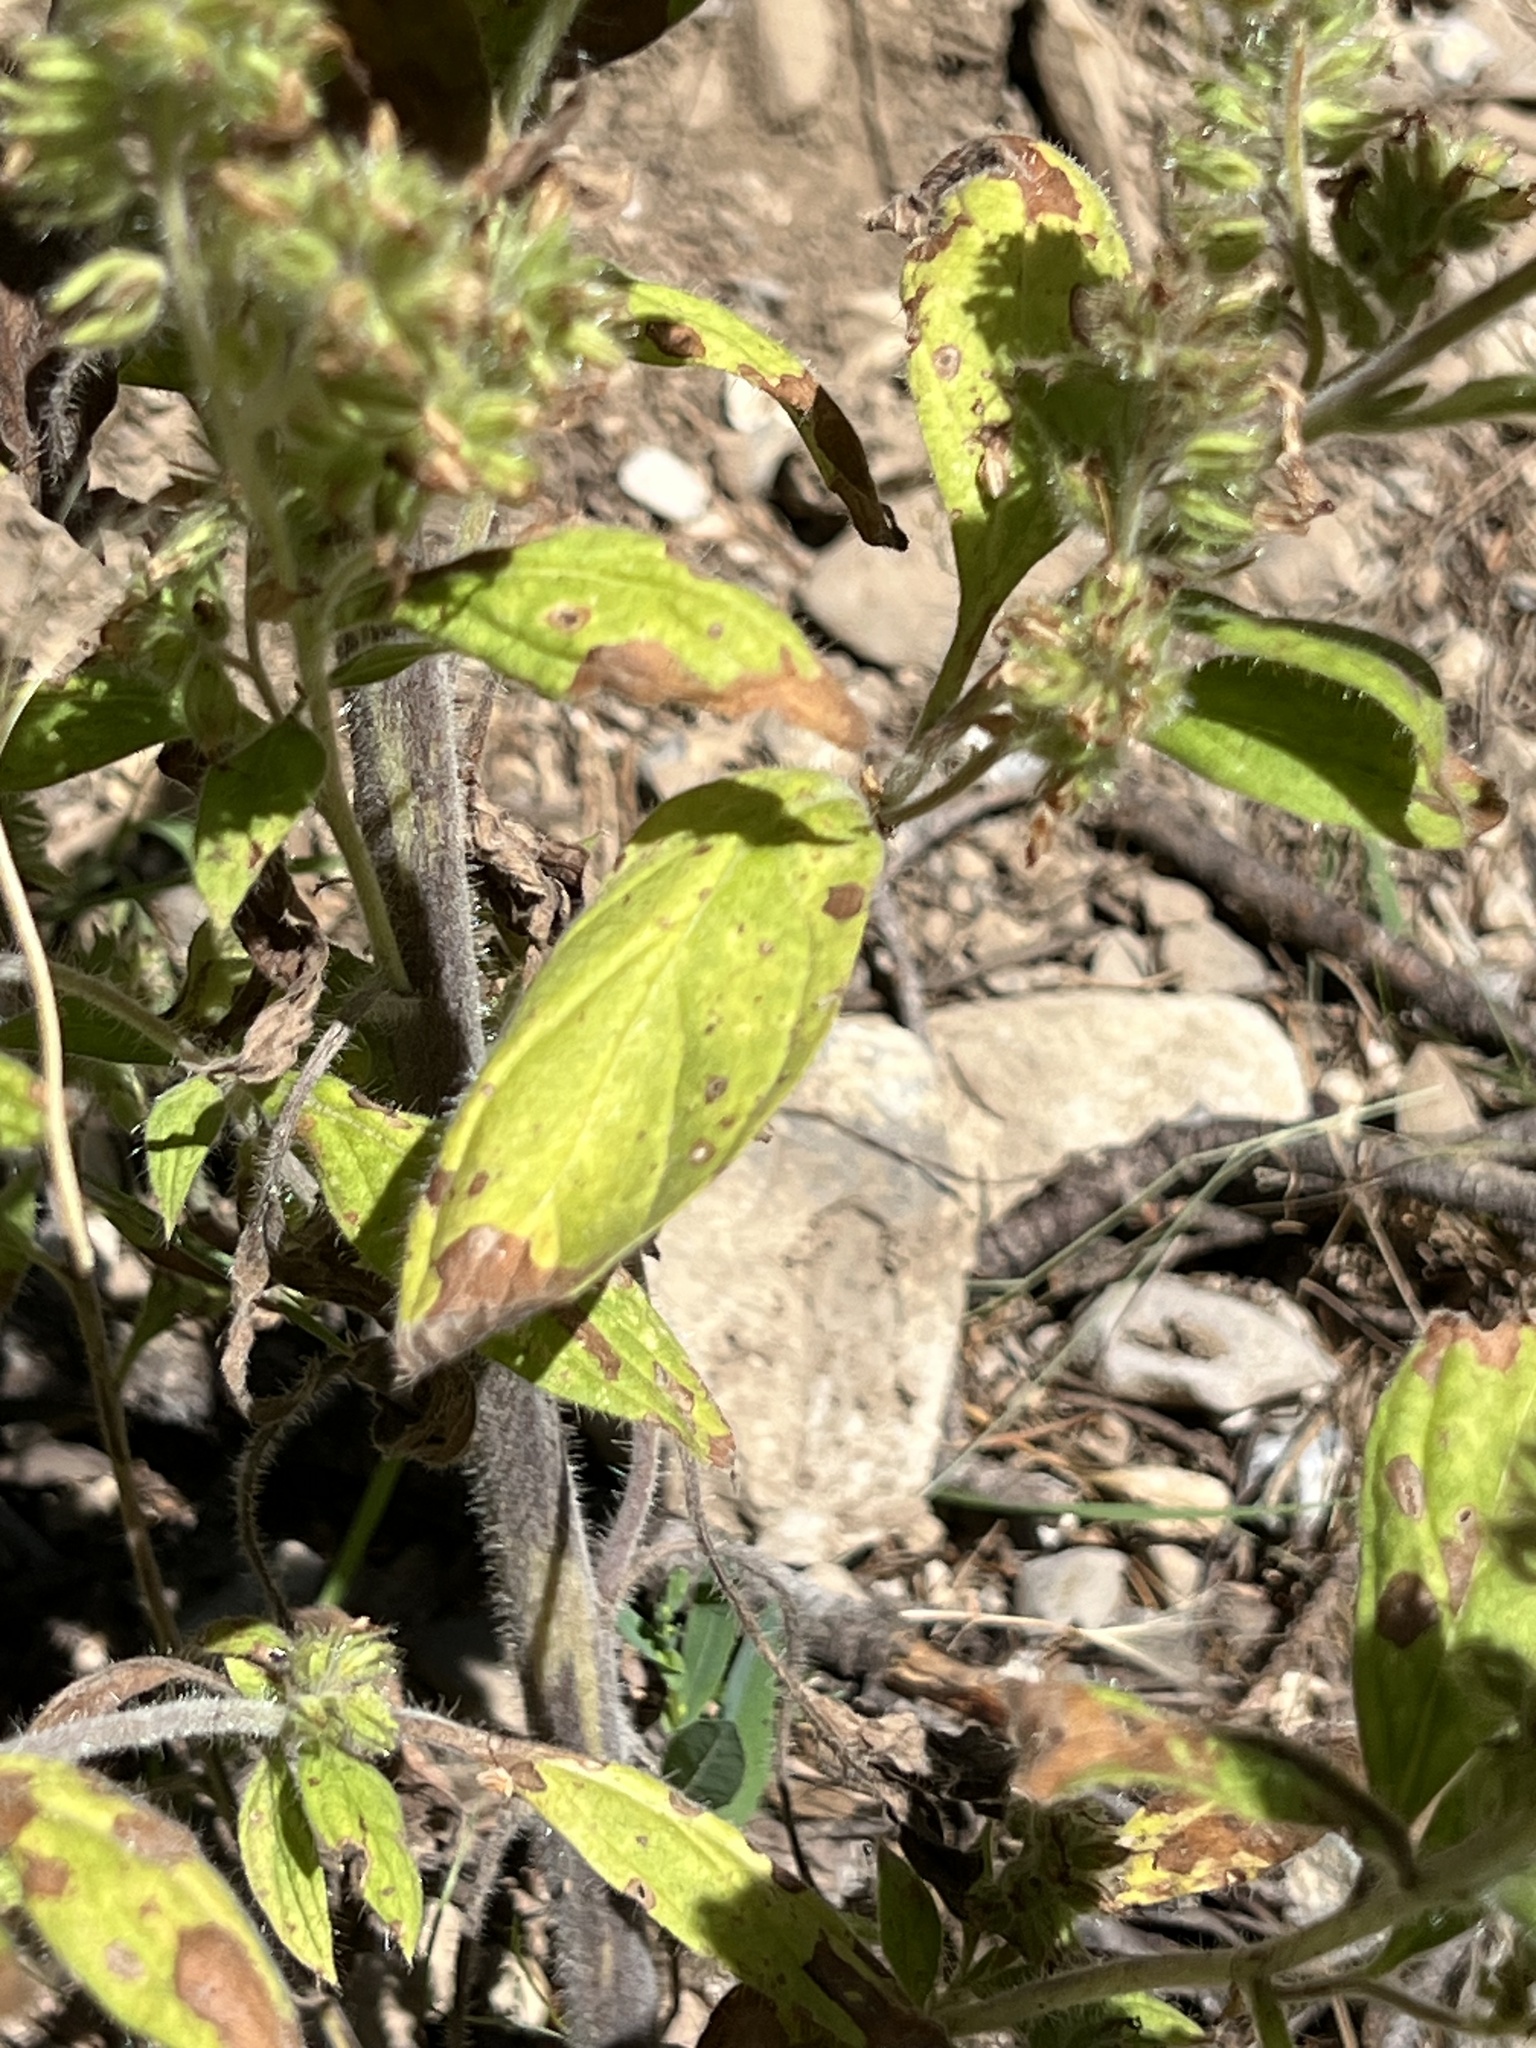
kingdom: Plantae
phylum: Tracheophyta
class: Magnoliopsida
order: Boraginales
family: Hydrophyllaceae
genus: Phacelia
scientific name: Phacelia heterophylla
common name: Variable-leaved phacelia
